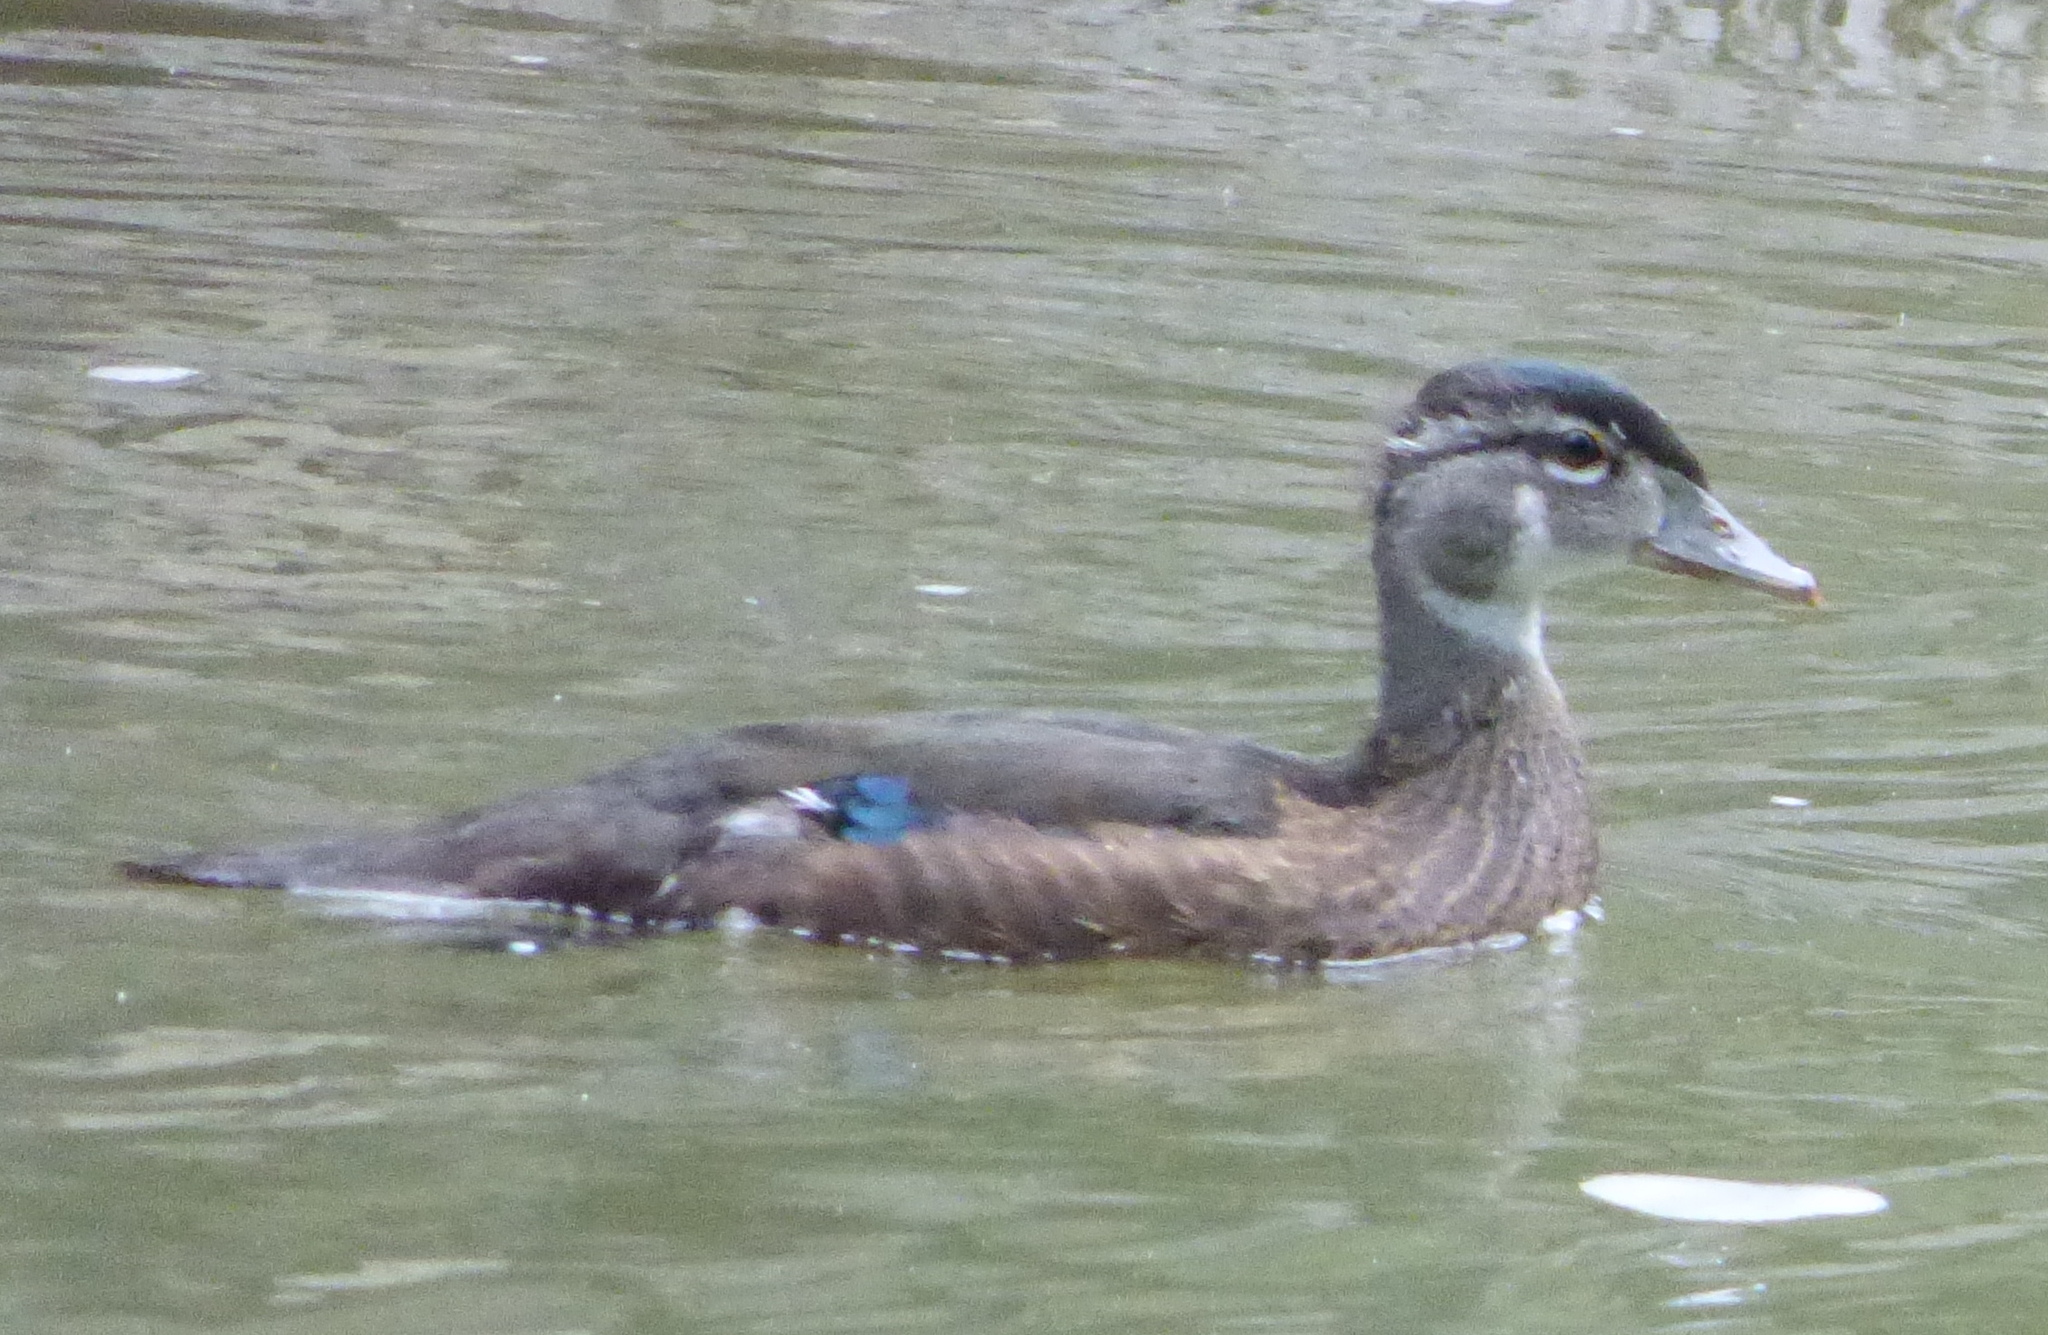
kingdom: Animalia
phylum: Chordata
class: Aves
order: Anseriformes
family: Anatidae
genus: Aix
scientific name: Aix sponsa
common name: Wood duck
